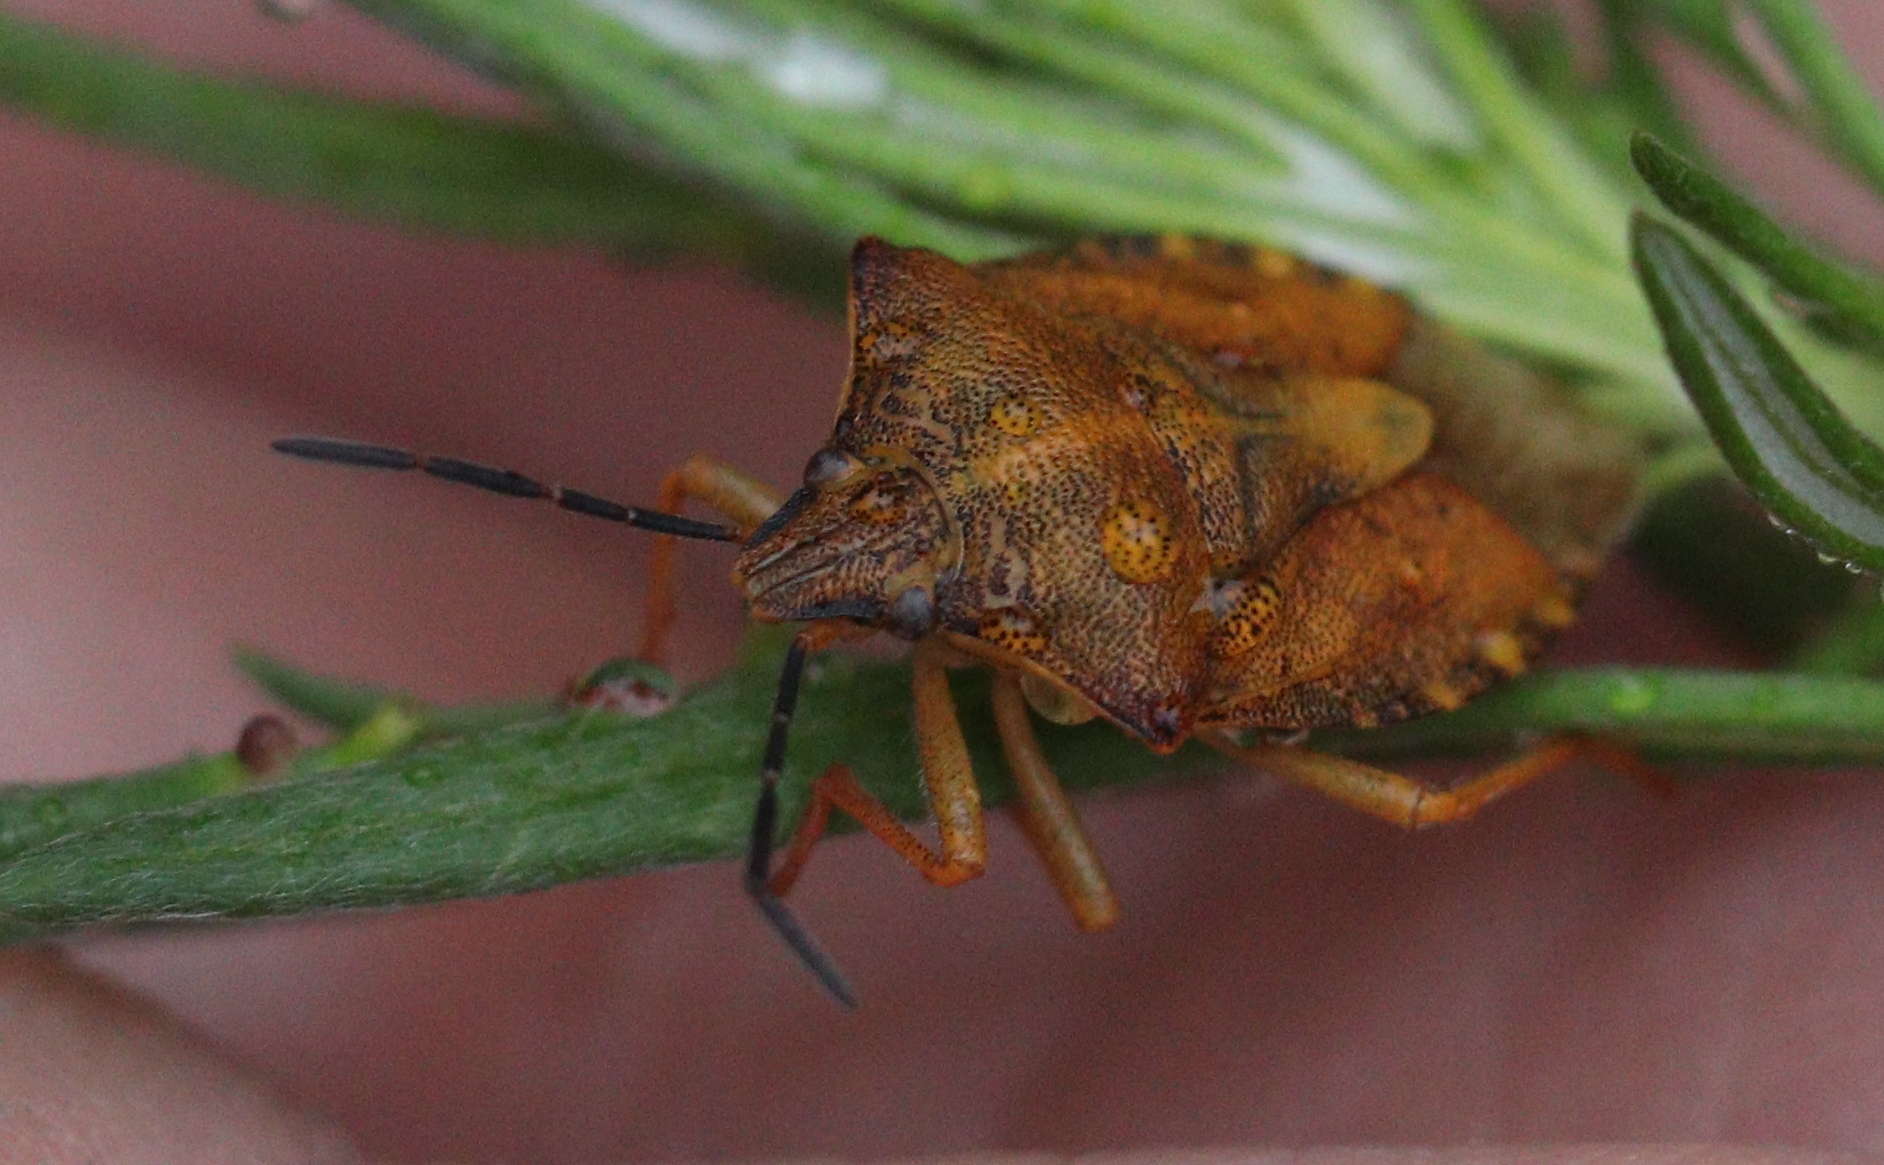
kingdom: Animalia
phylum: Arthropoda
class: Insecta
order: Hemiptera
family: Pentatomidae
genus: Carpocoris
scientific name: Carpocoris purpureipennis
